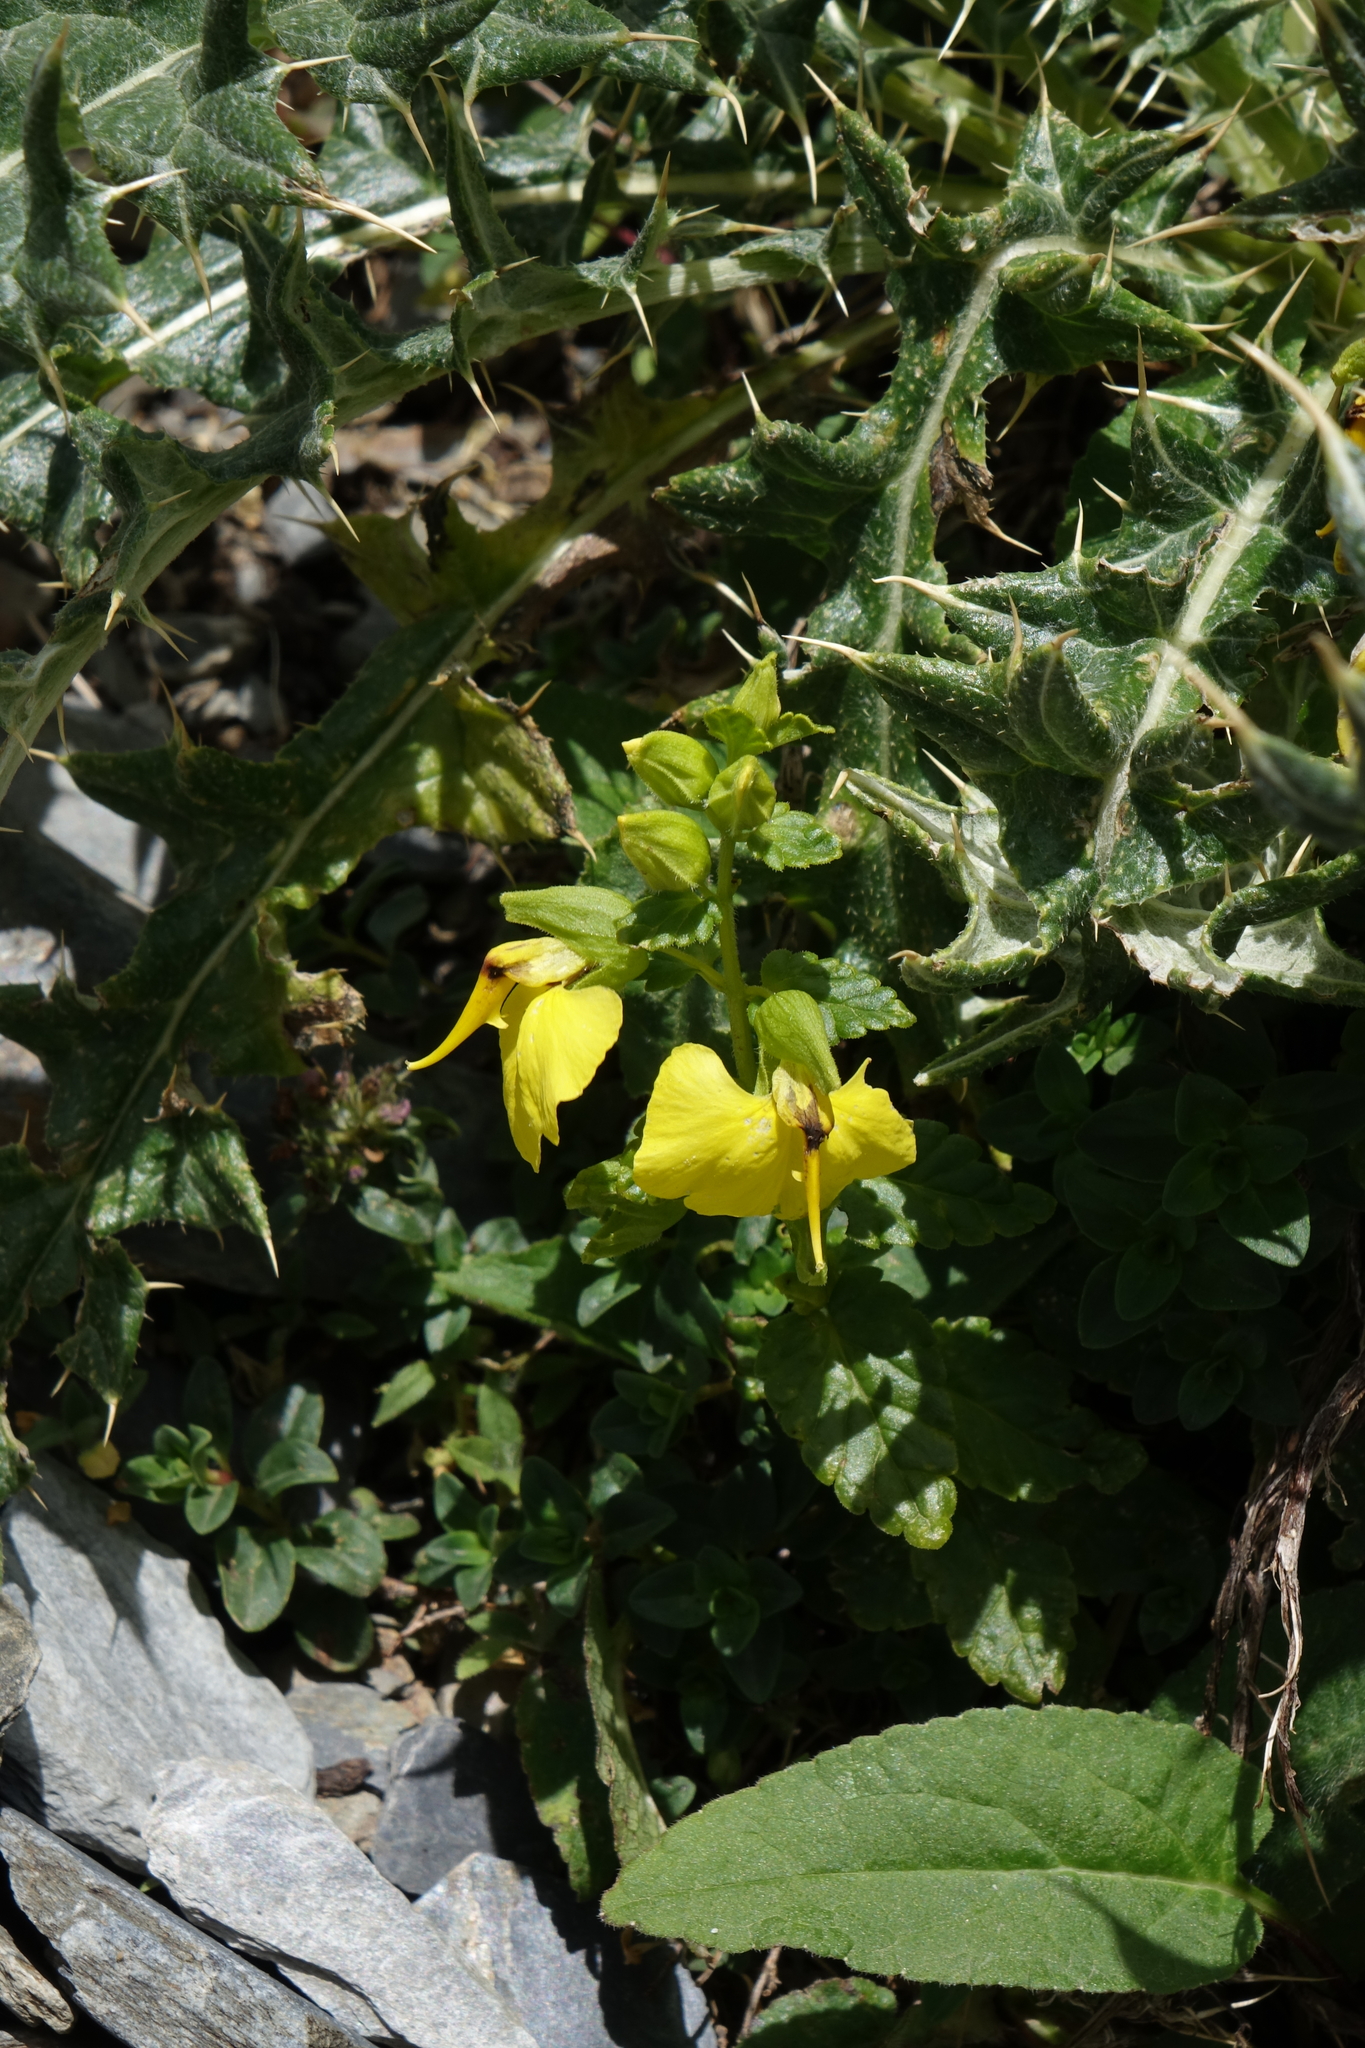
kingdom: Plantae
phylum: Tracheophyta
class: Magnoliopsida
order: Lamiales
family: Orobanchaceae
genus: Rhynchocorys
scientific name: Rhynchocorys elephas
